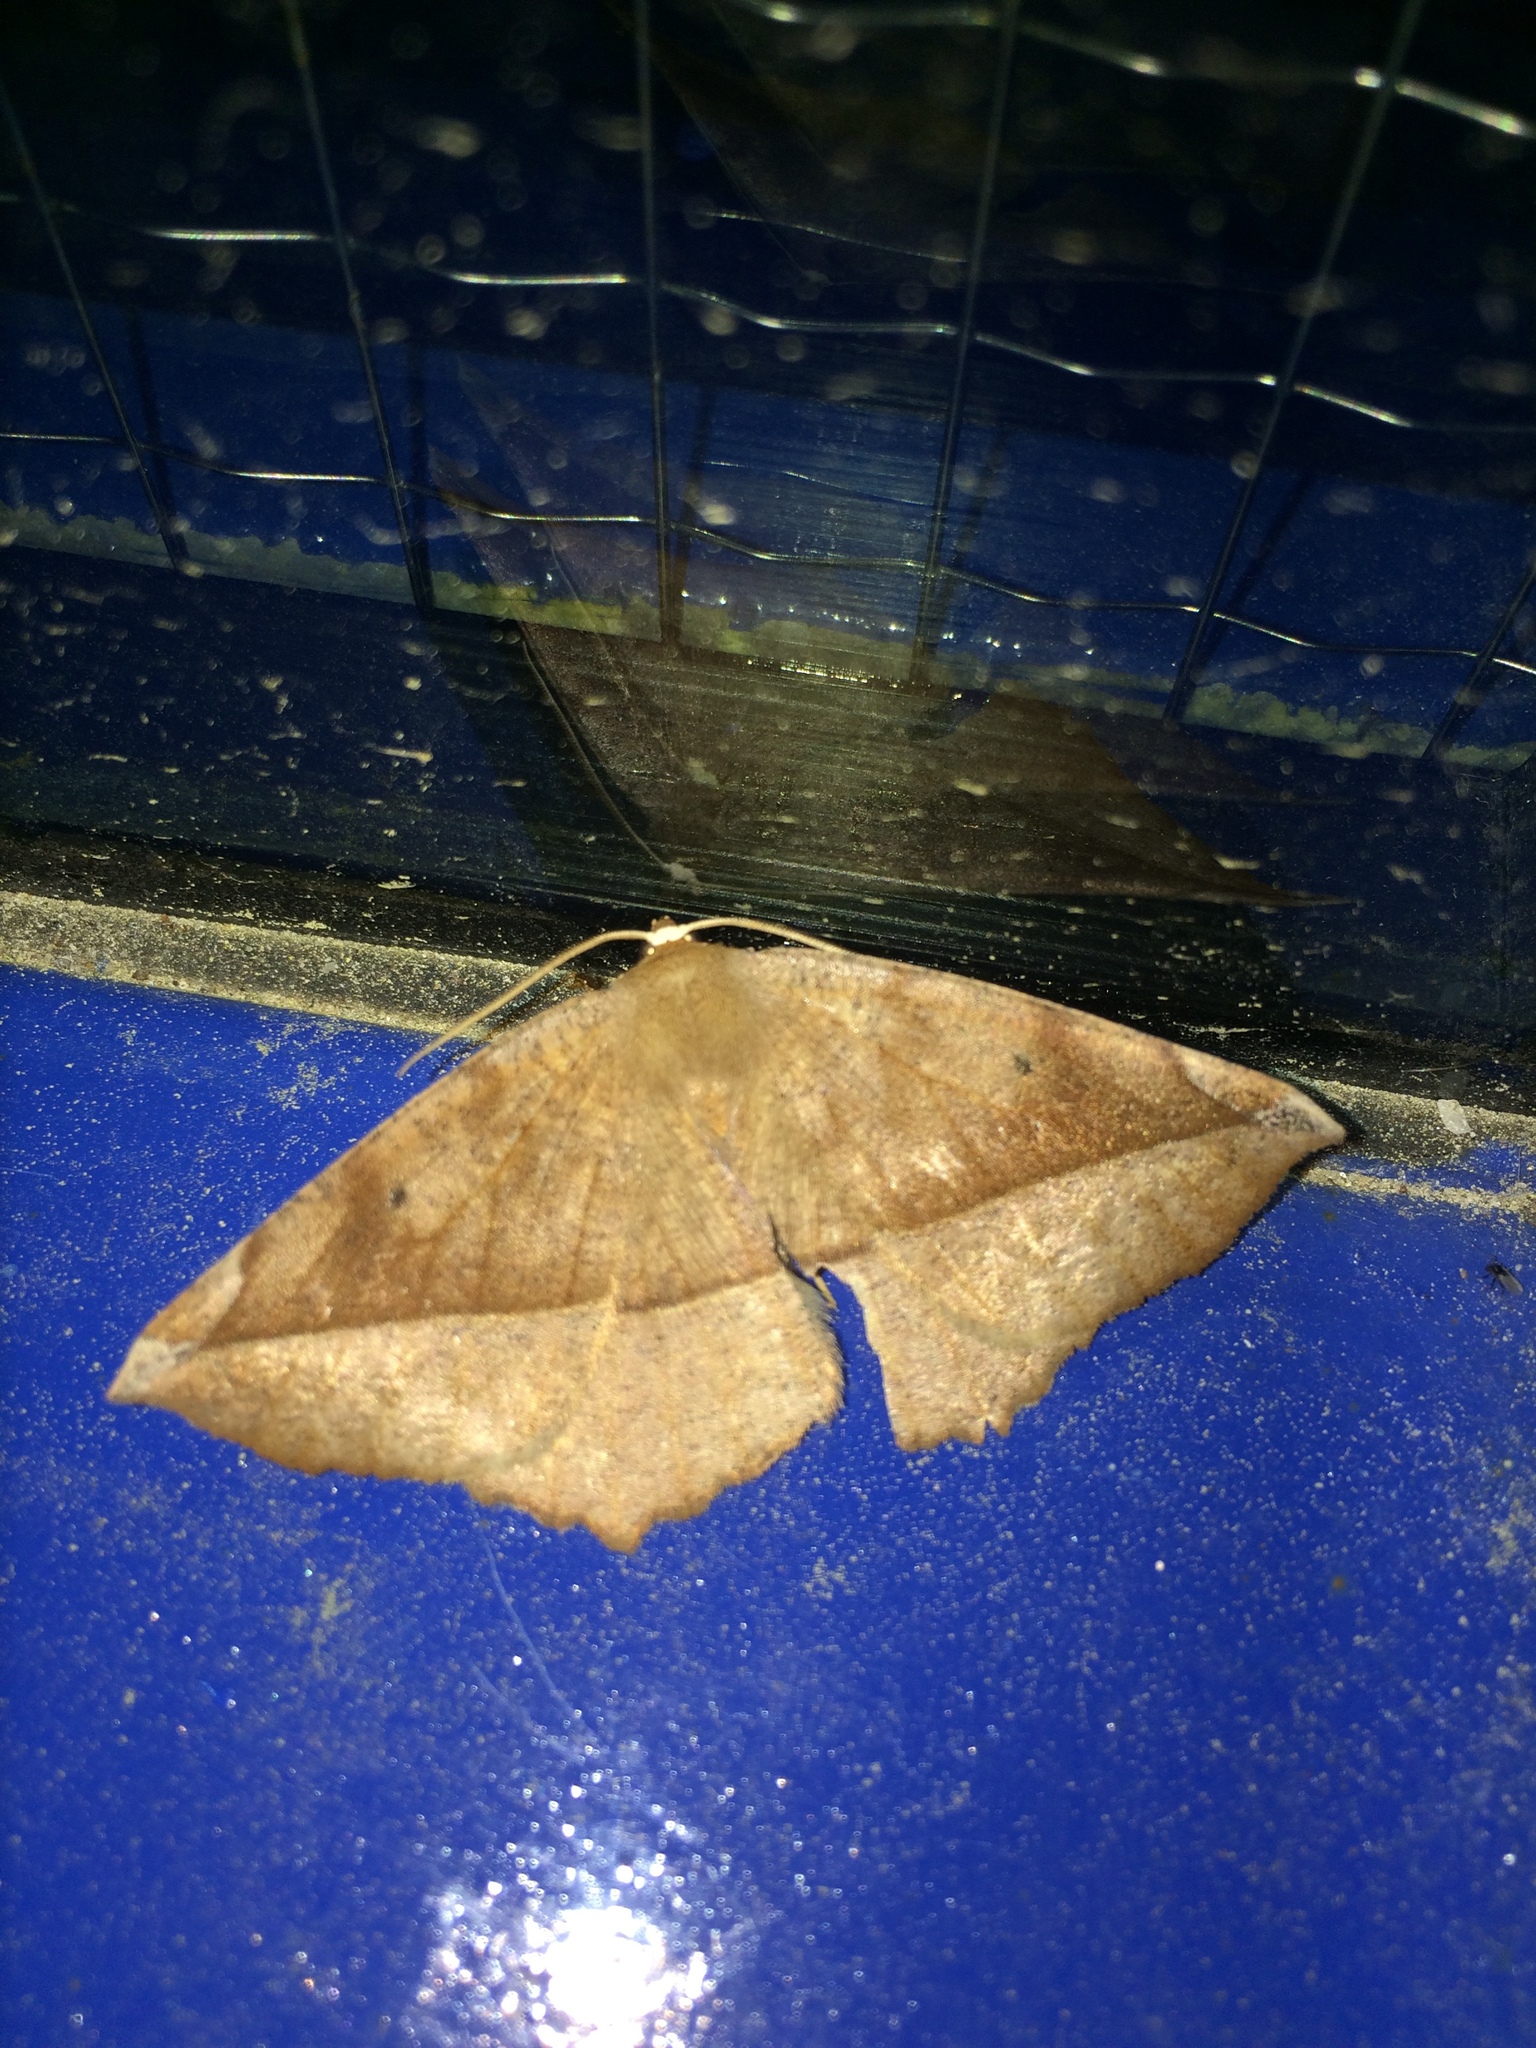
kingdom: Animalia
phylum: Arthropoda
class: Insecta
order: Lepidoptera
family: Geometridae
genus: Eutrapela
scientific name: Eutrapela clemataria
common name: Curved-toothed geometer
